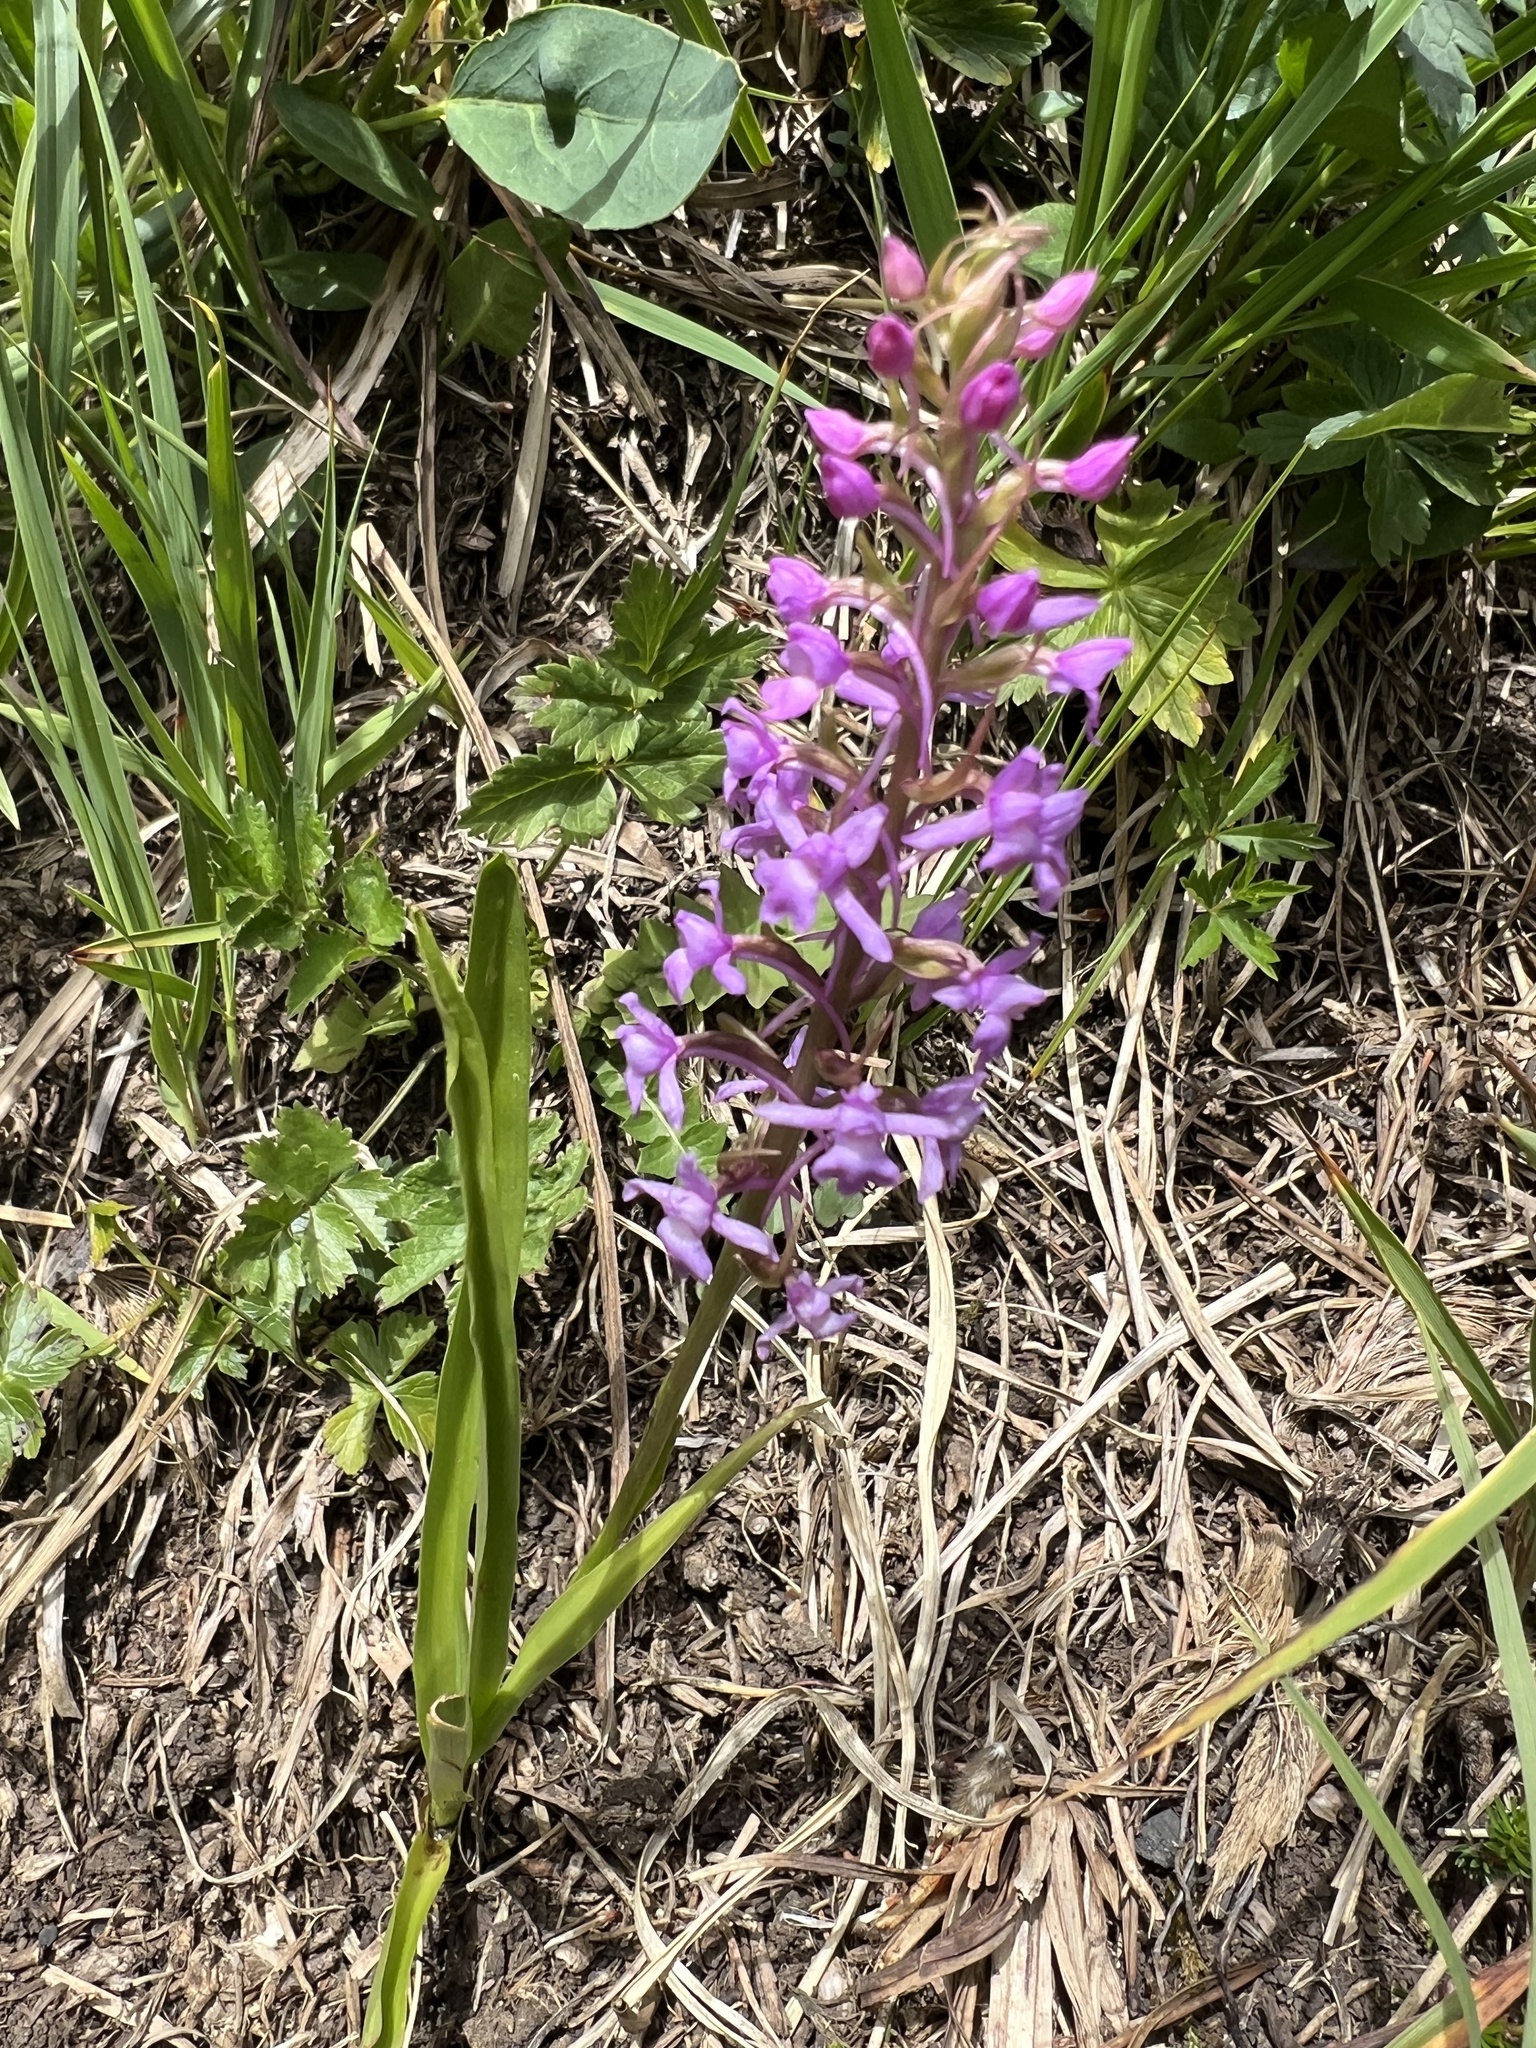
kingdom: Plantae
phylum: Tracheophyta
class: Liliopsida
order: Asparagales
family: Orchidaceae
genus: Gymnadenia
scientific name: Gymnadenia conopsea
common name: Fragrant orchid
